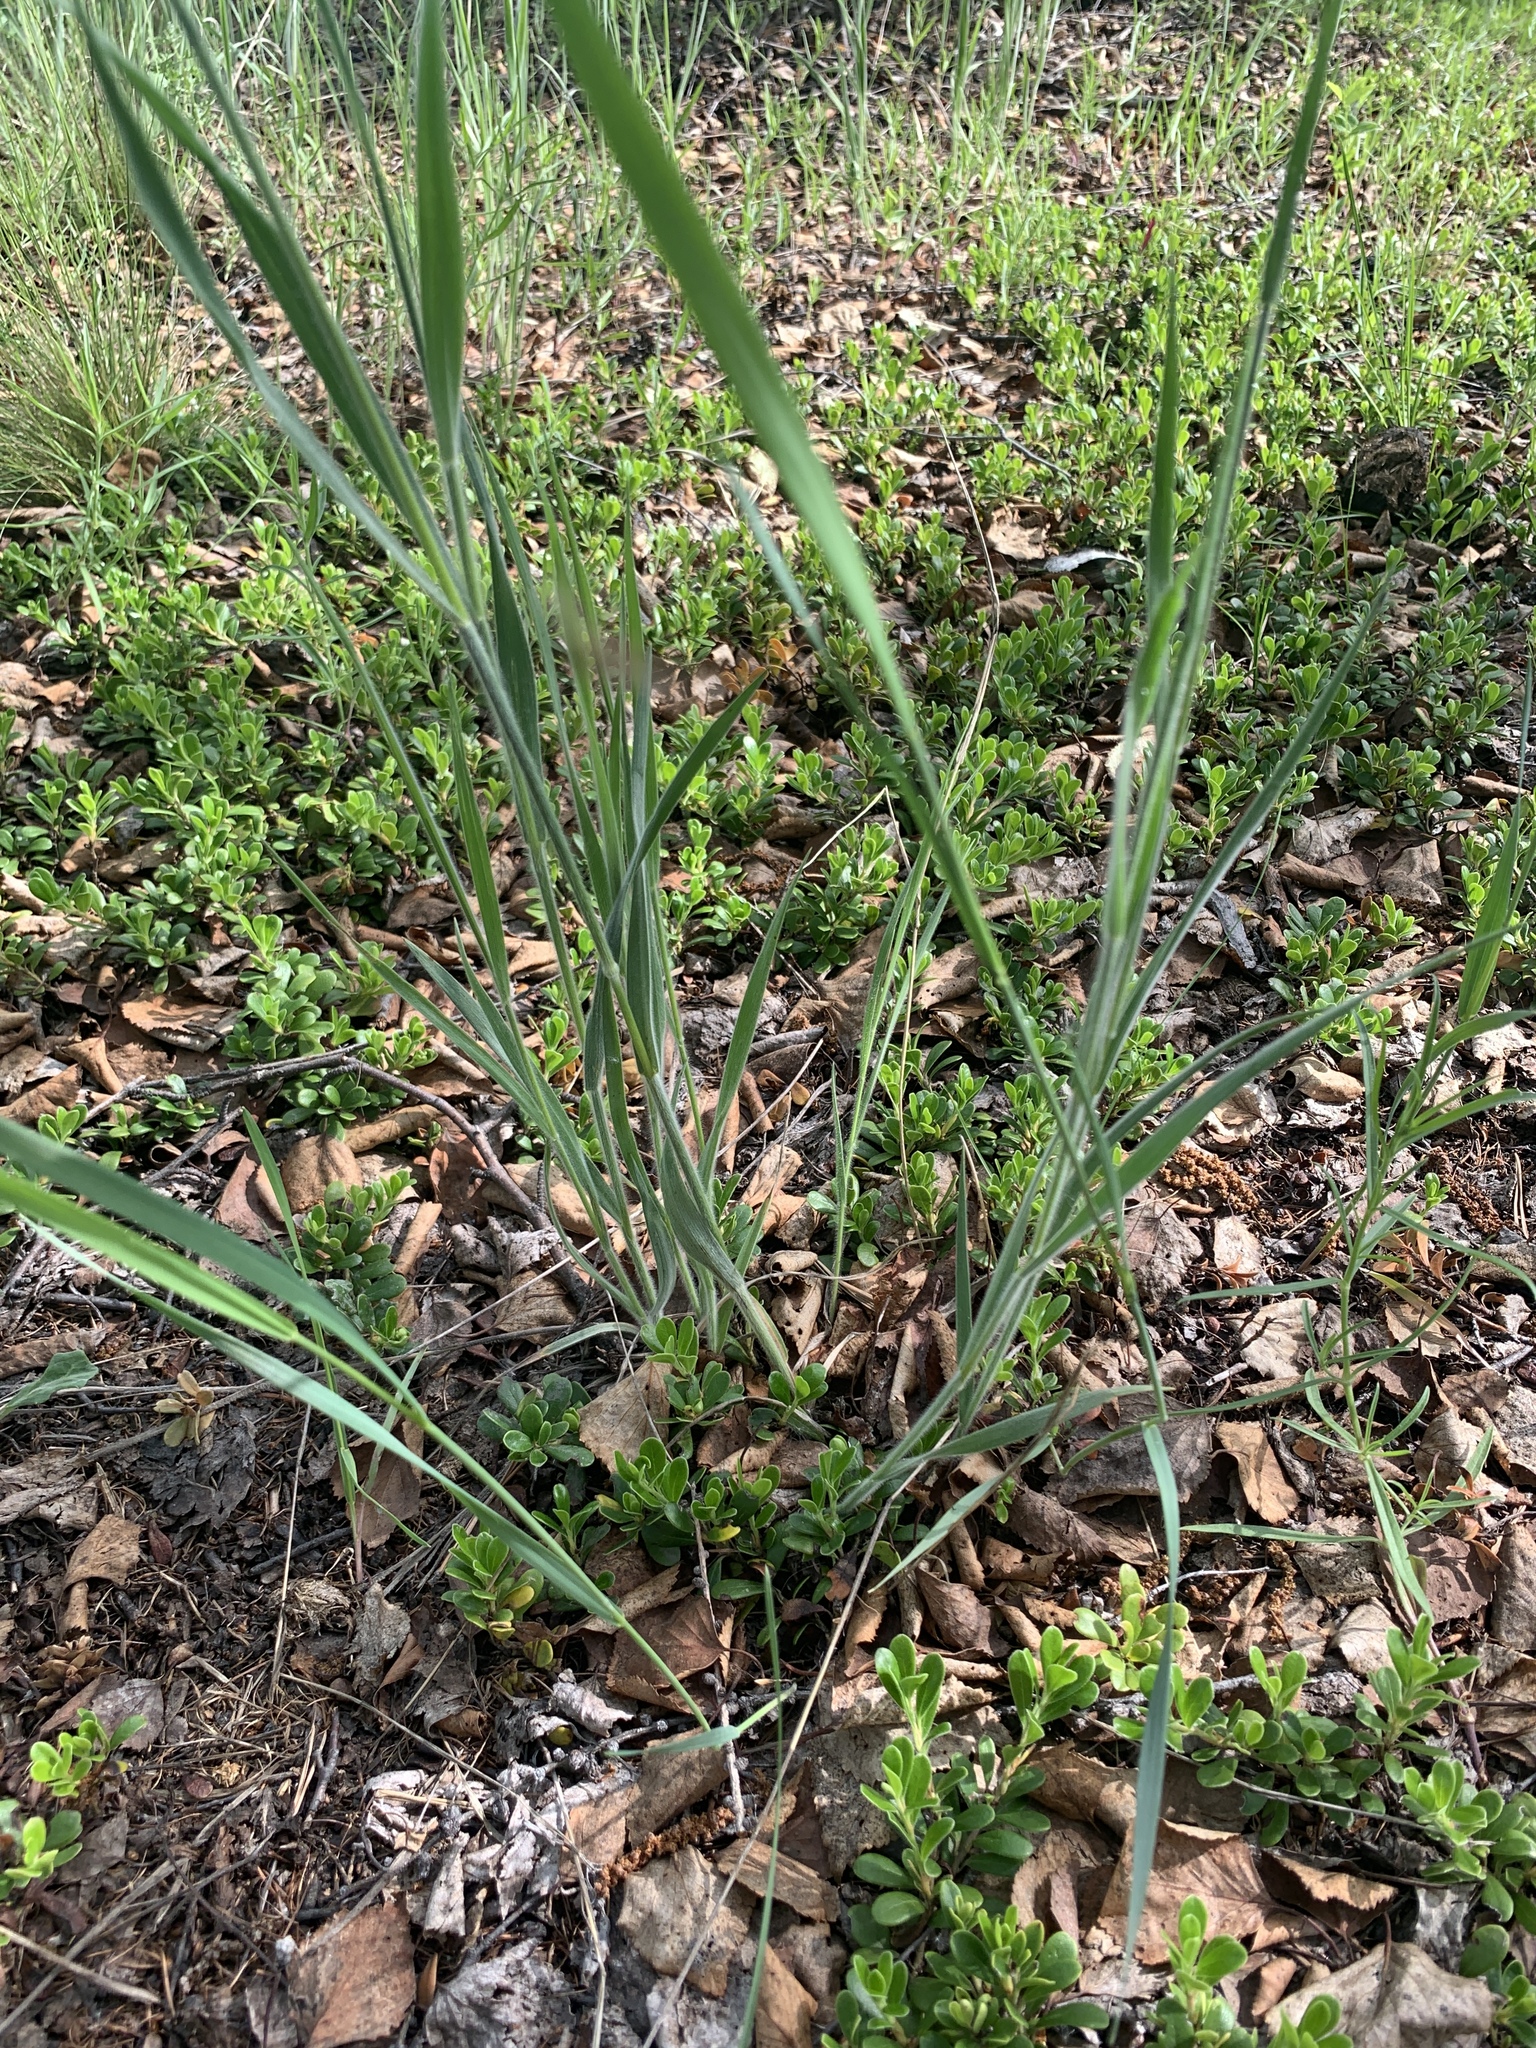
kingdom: Plantae
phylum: Tracheophyta
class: Liliopsida
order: Poales
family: Poaceae
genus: Bromus
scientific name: Bromus inermis
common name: Smooth brome
